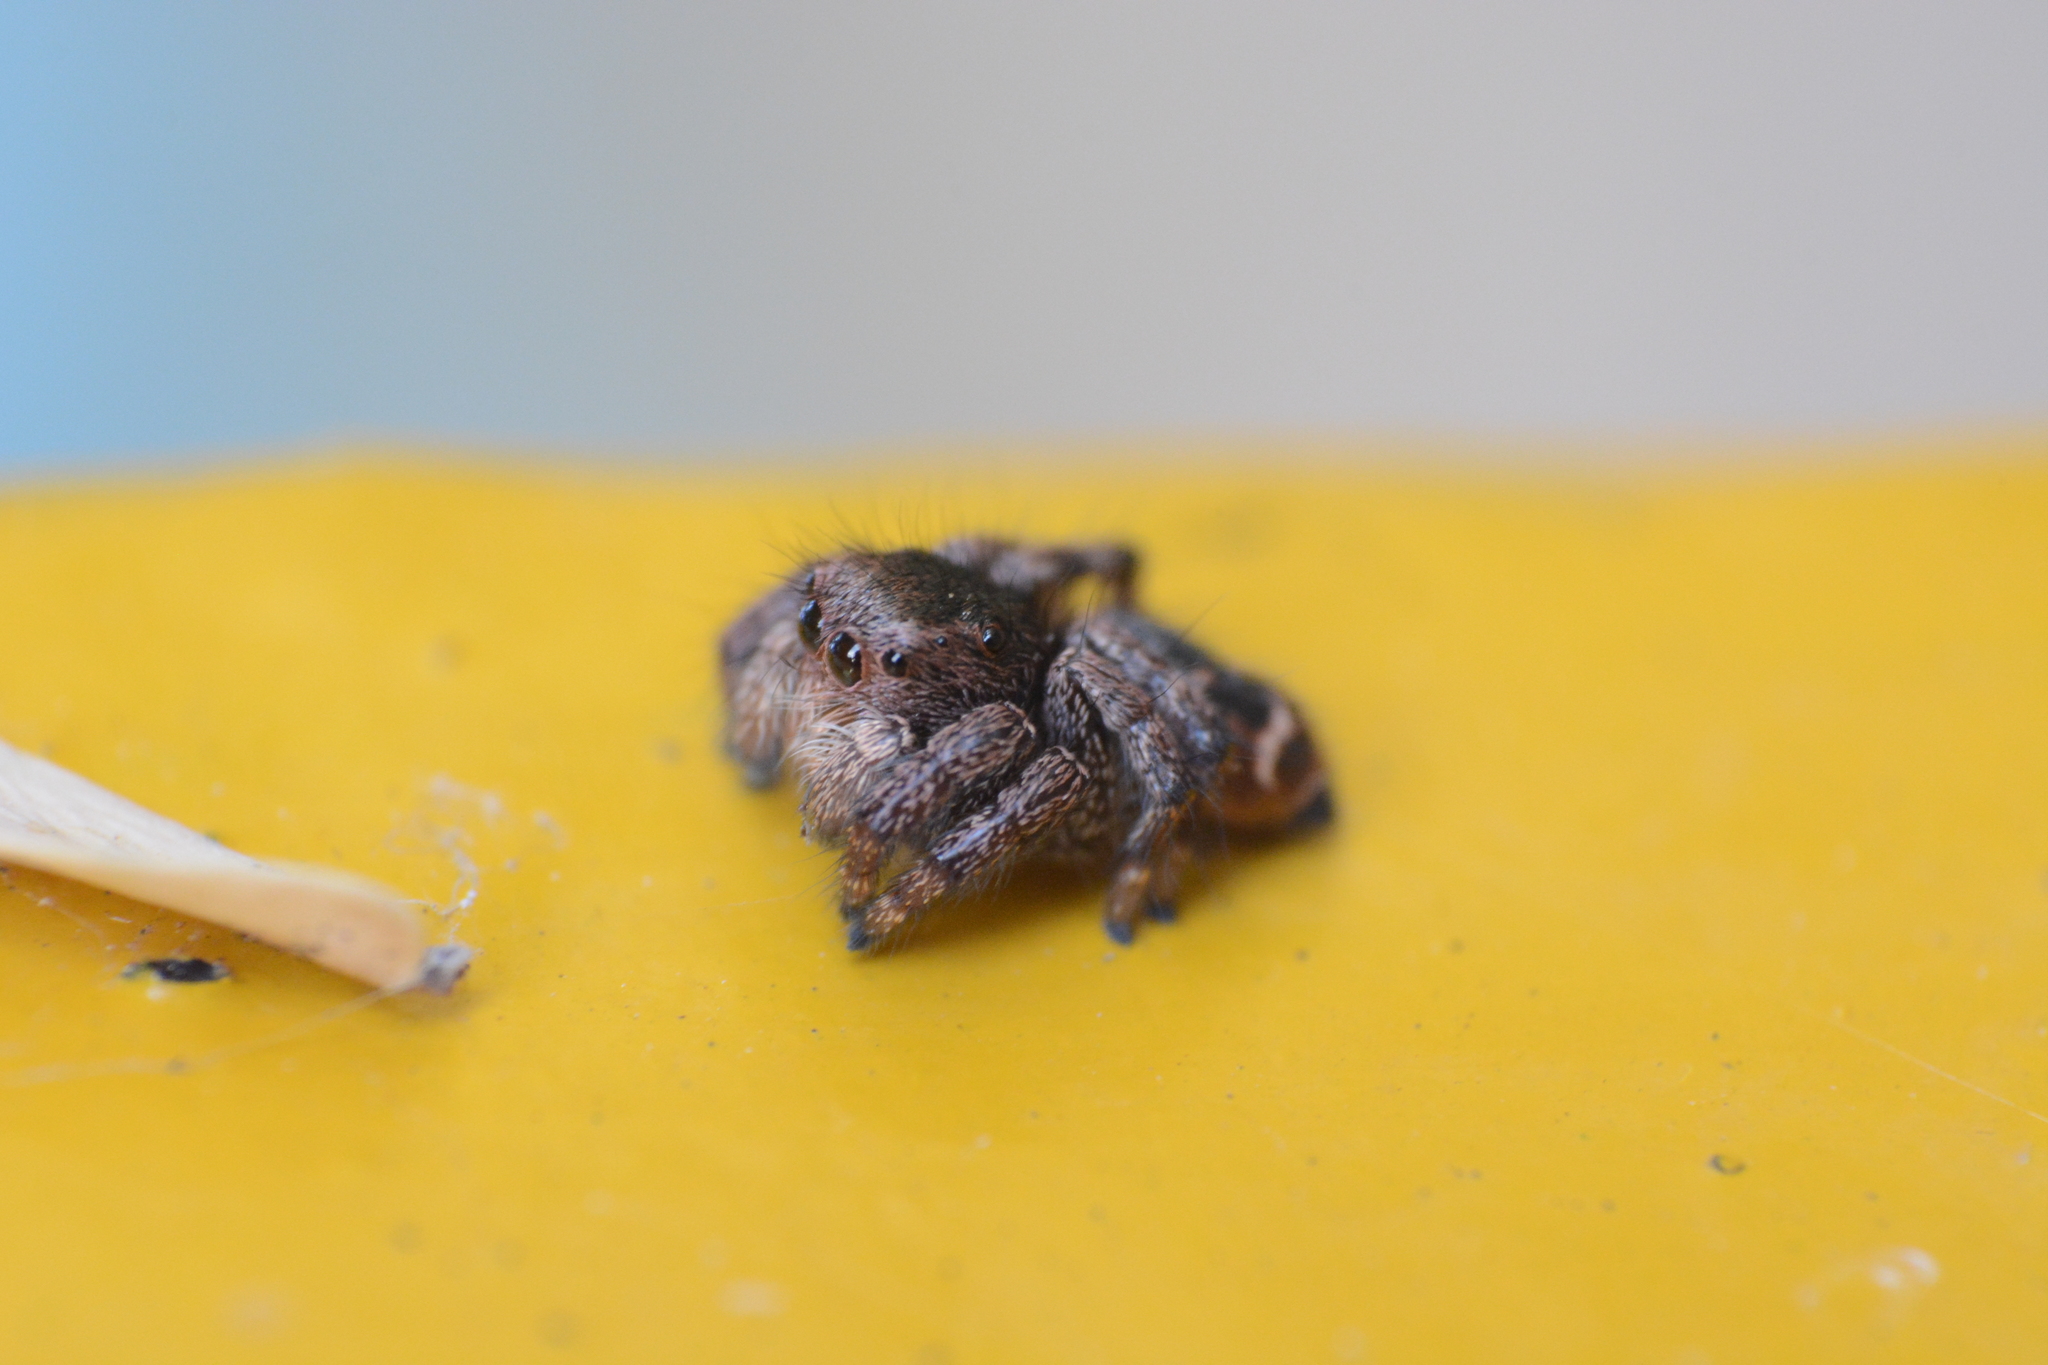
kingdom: Animalia
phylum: Arthropoda
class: Arachnida
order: Araneae
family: Salticidae
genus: Baryphas
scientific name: Baryphas ahenus
